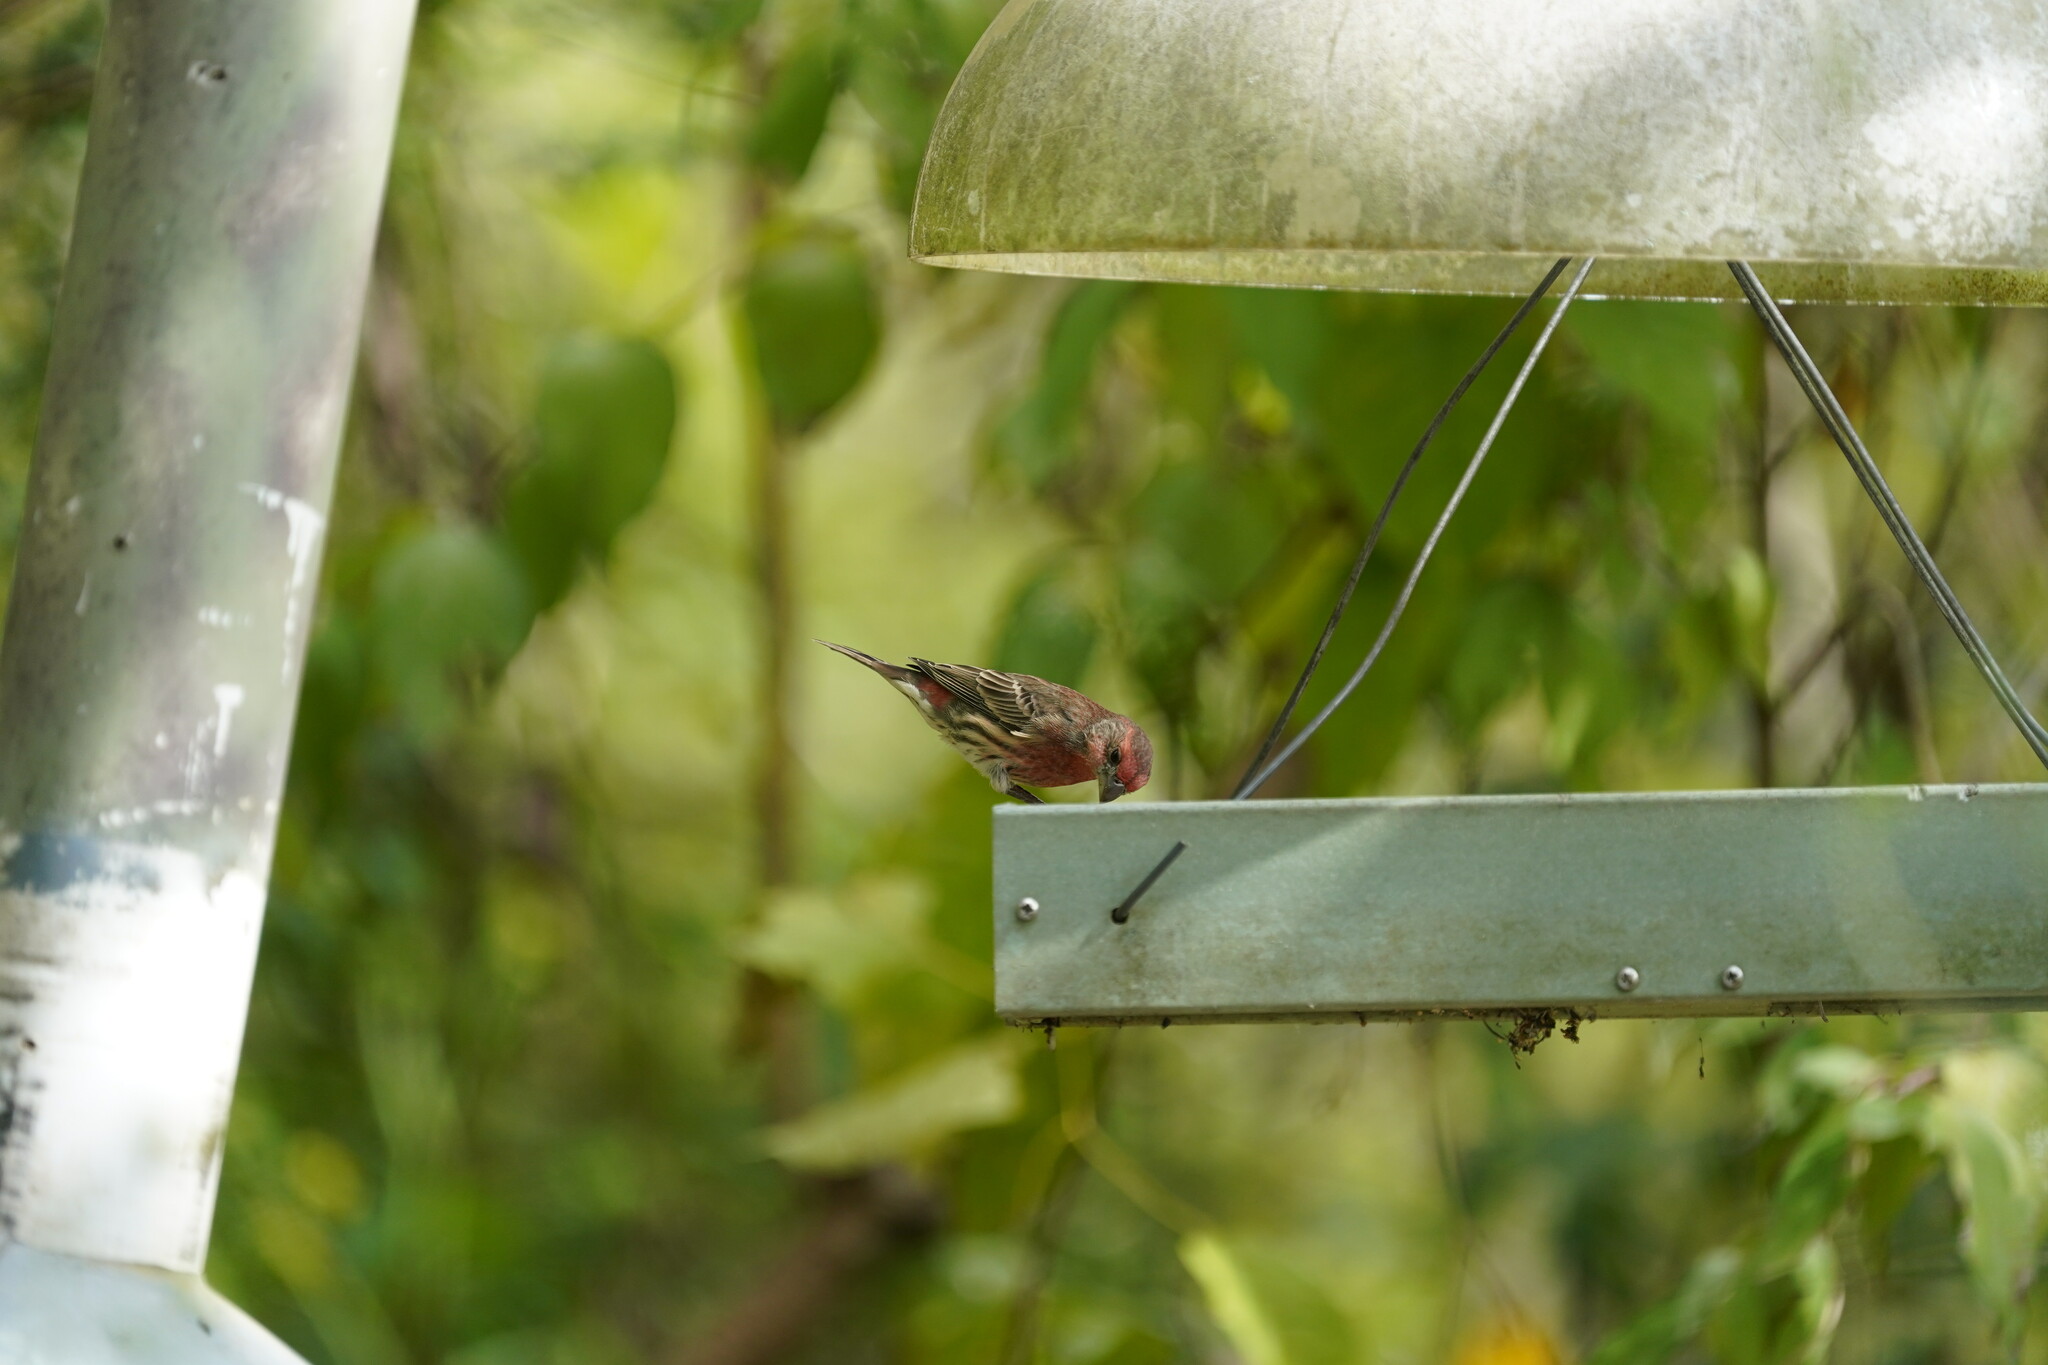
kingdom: Animalia
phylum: Chordata
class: Aves
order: Passeriformes
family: Fringillidae
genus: Haemorhous
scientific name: Haemorhous mexicanus
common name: House finch
